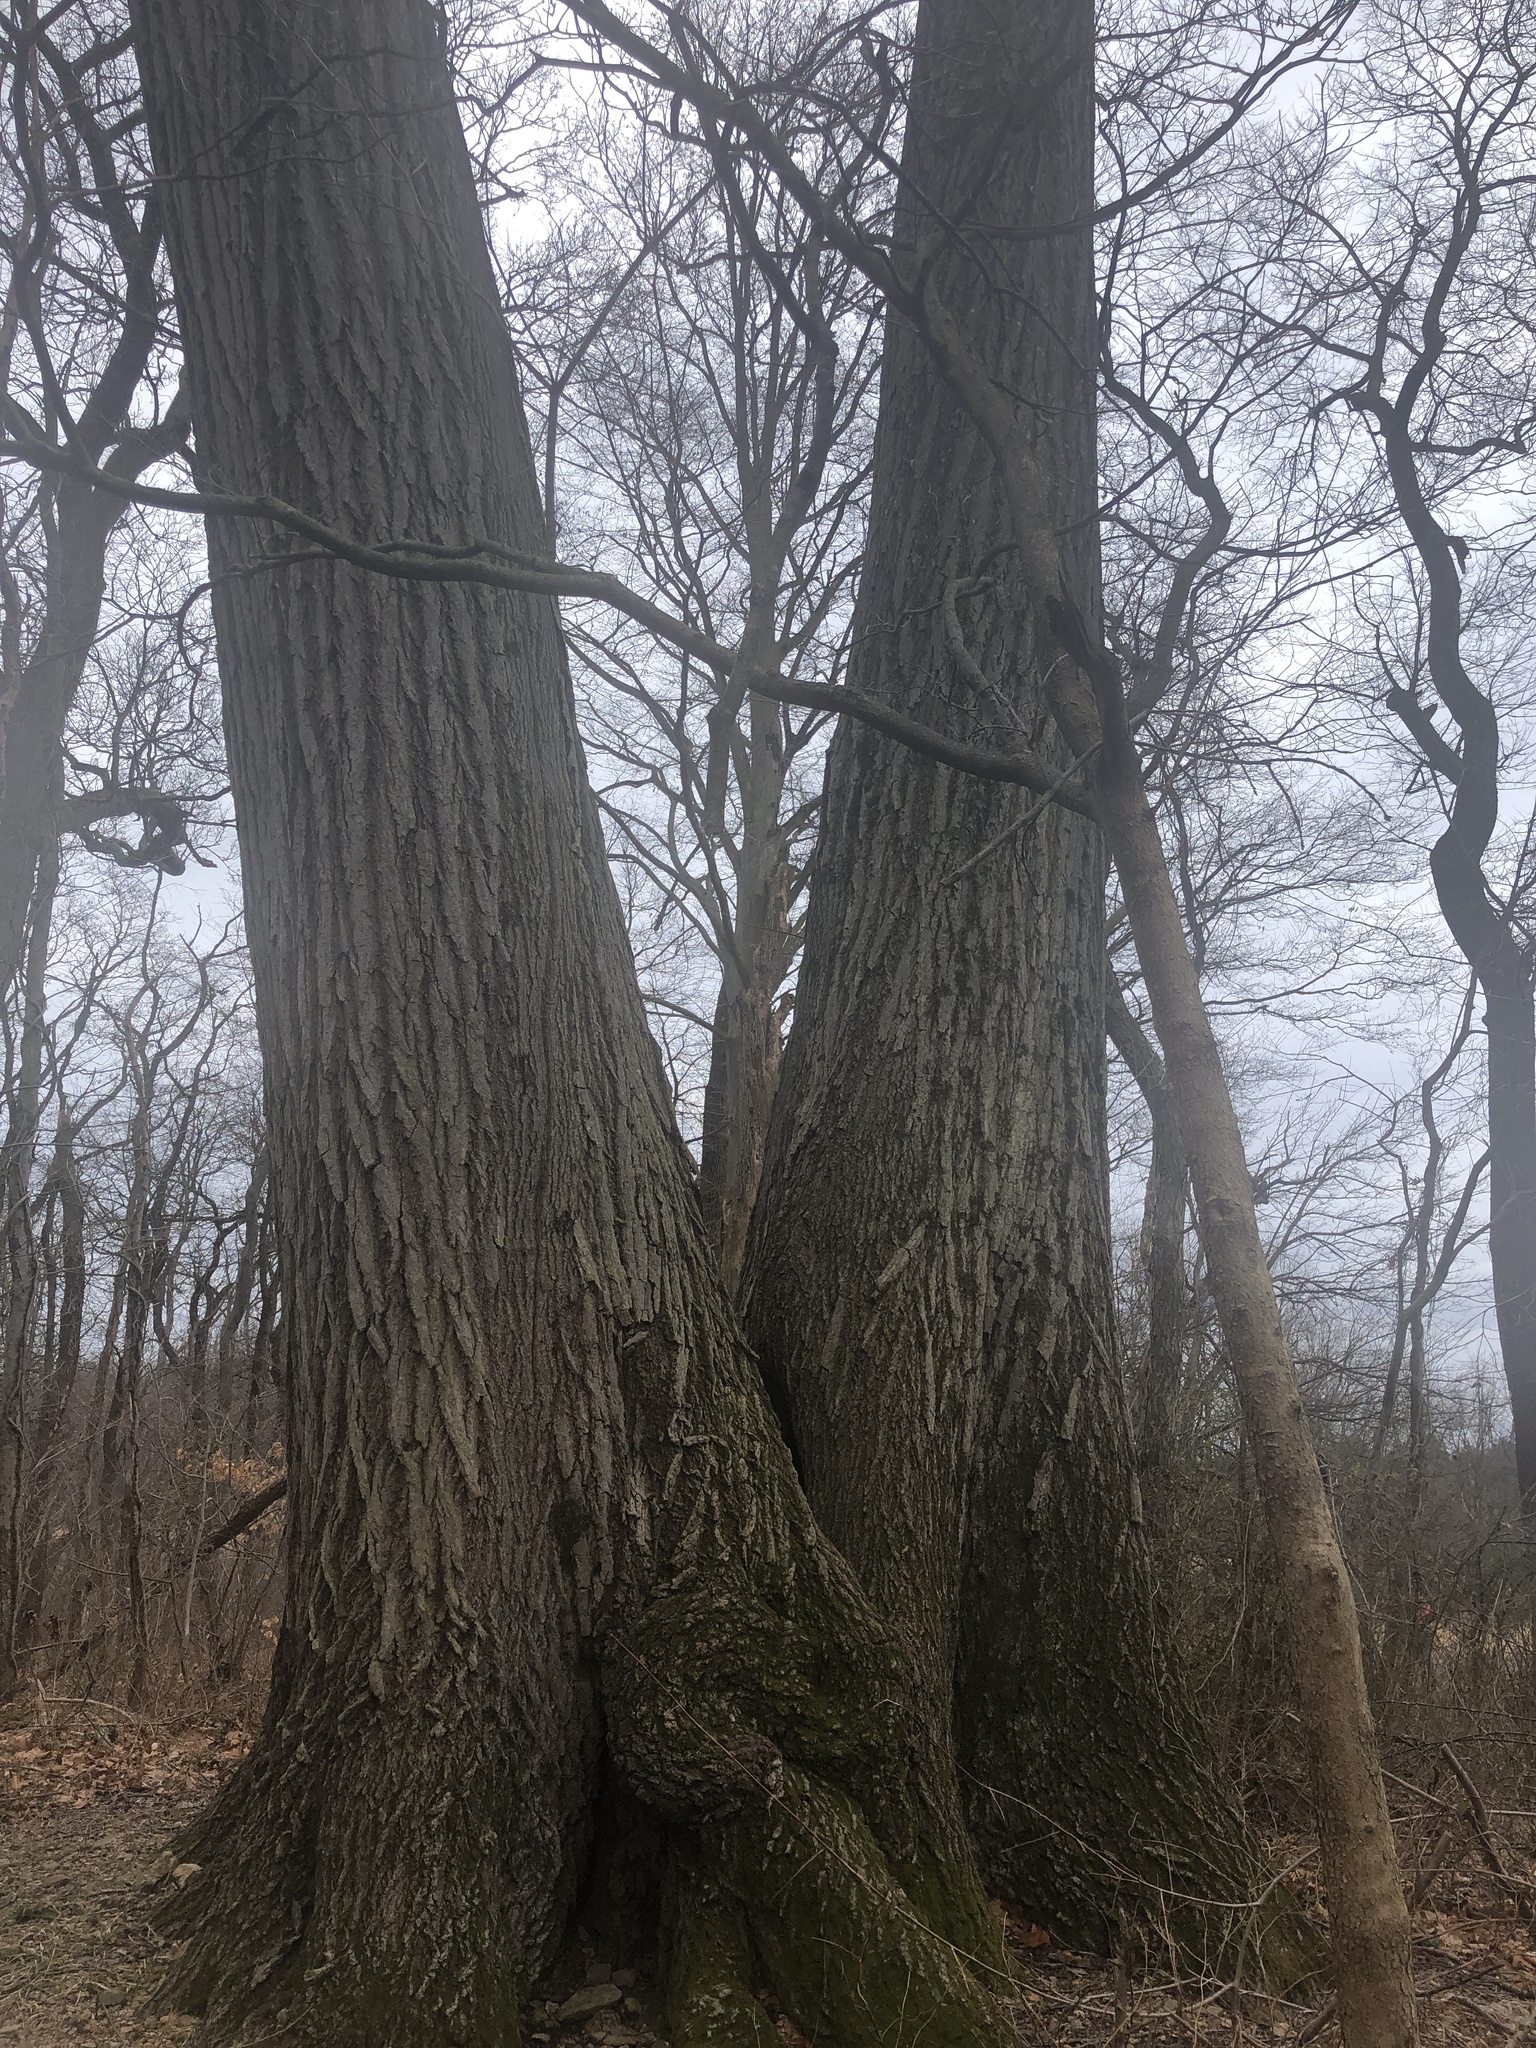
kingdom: Plantae
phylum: Tracheophyta
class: Magnoliopsida
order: Fagales
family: Fagaceae
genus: Quercus
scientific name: Quercus rubra
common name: Red oak
